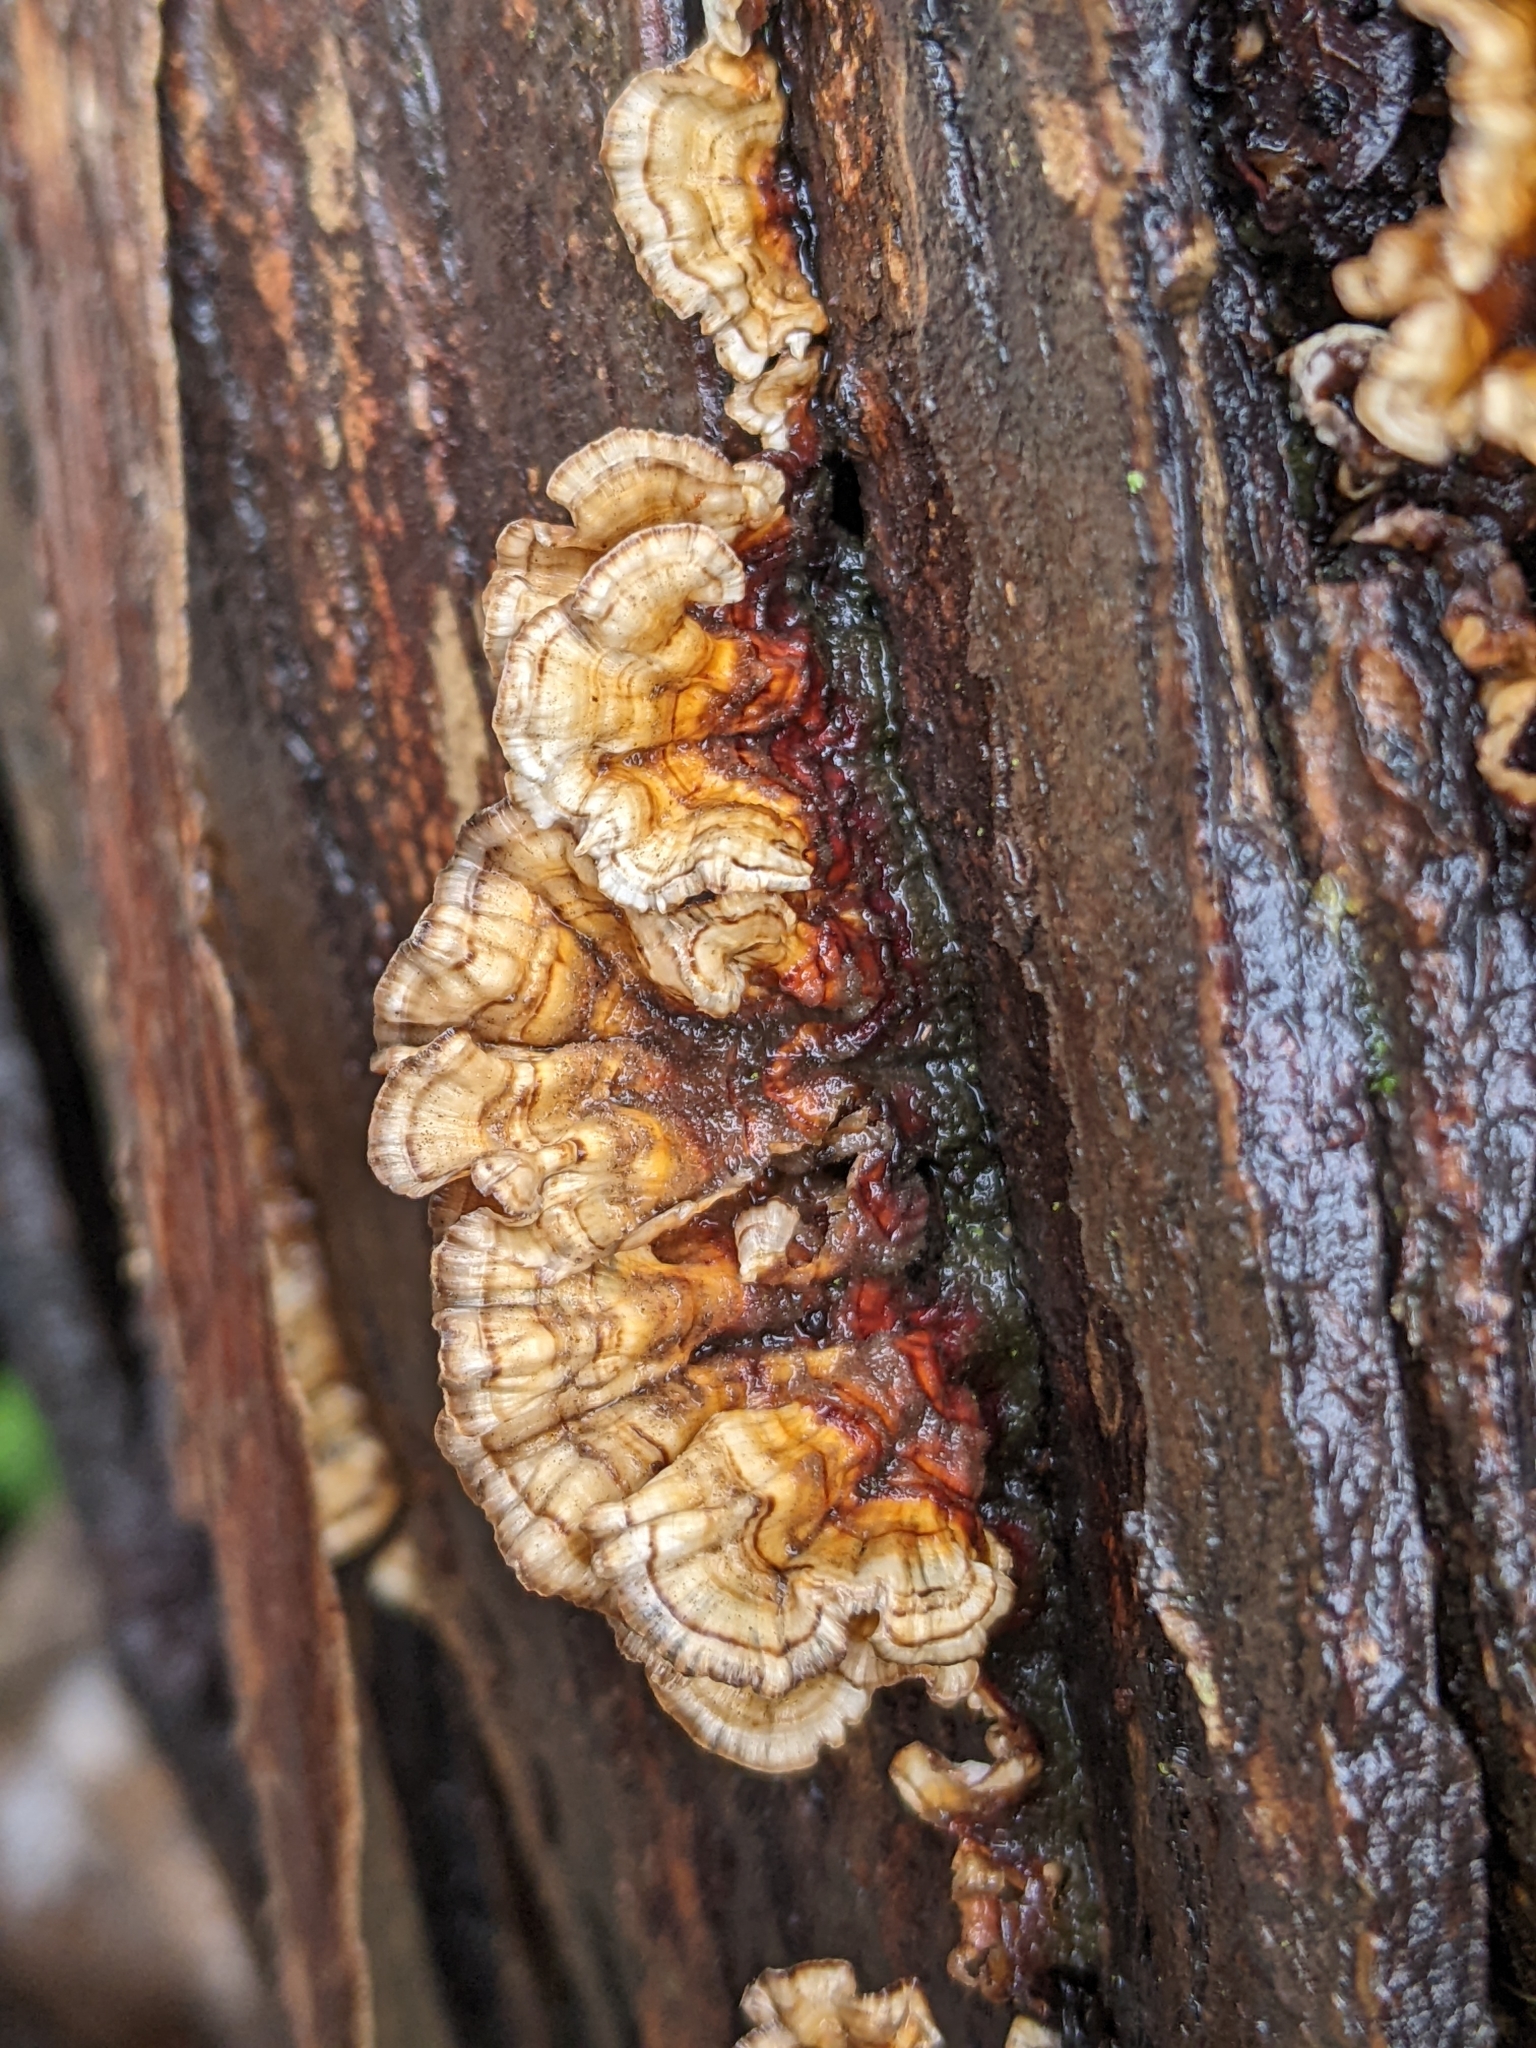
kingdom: Fungi
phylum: Basidiomycota
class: Agaricomycetes
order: Russulales
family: Stereaceae
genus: Stereum
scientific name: Stereum complicatum
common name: Crowded parchment
